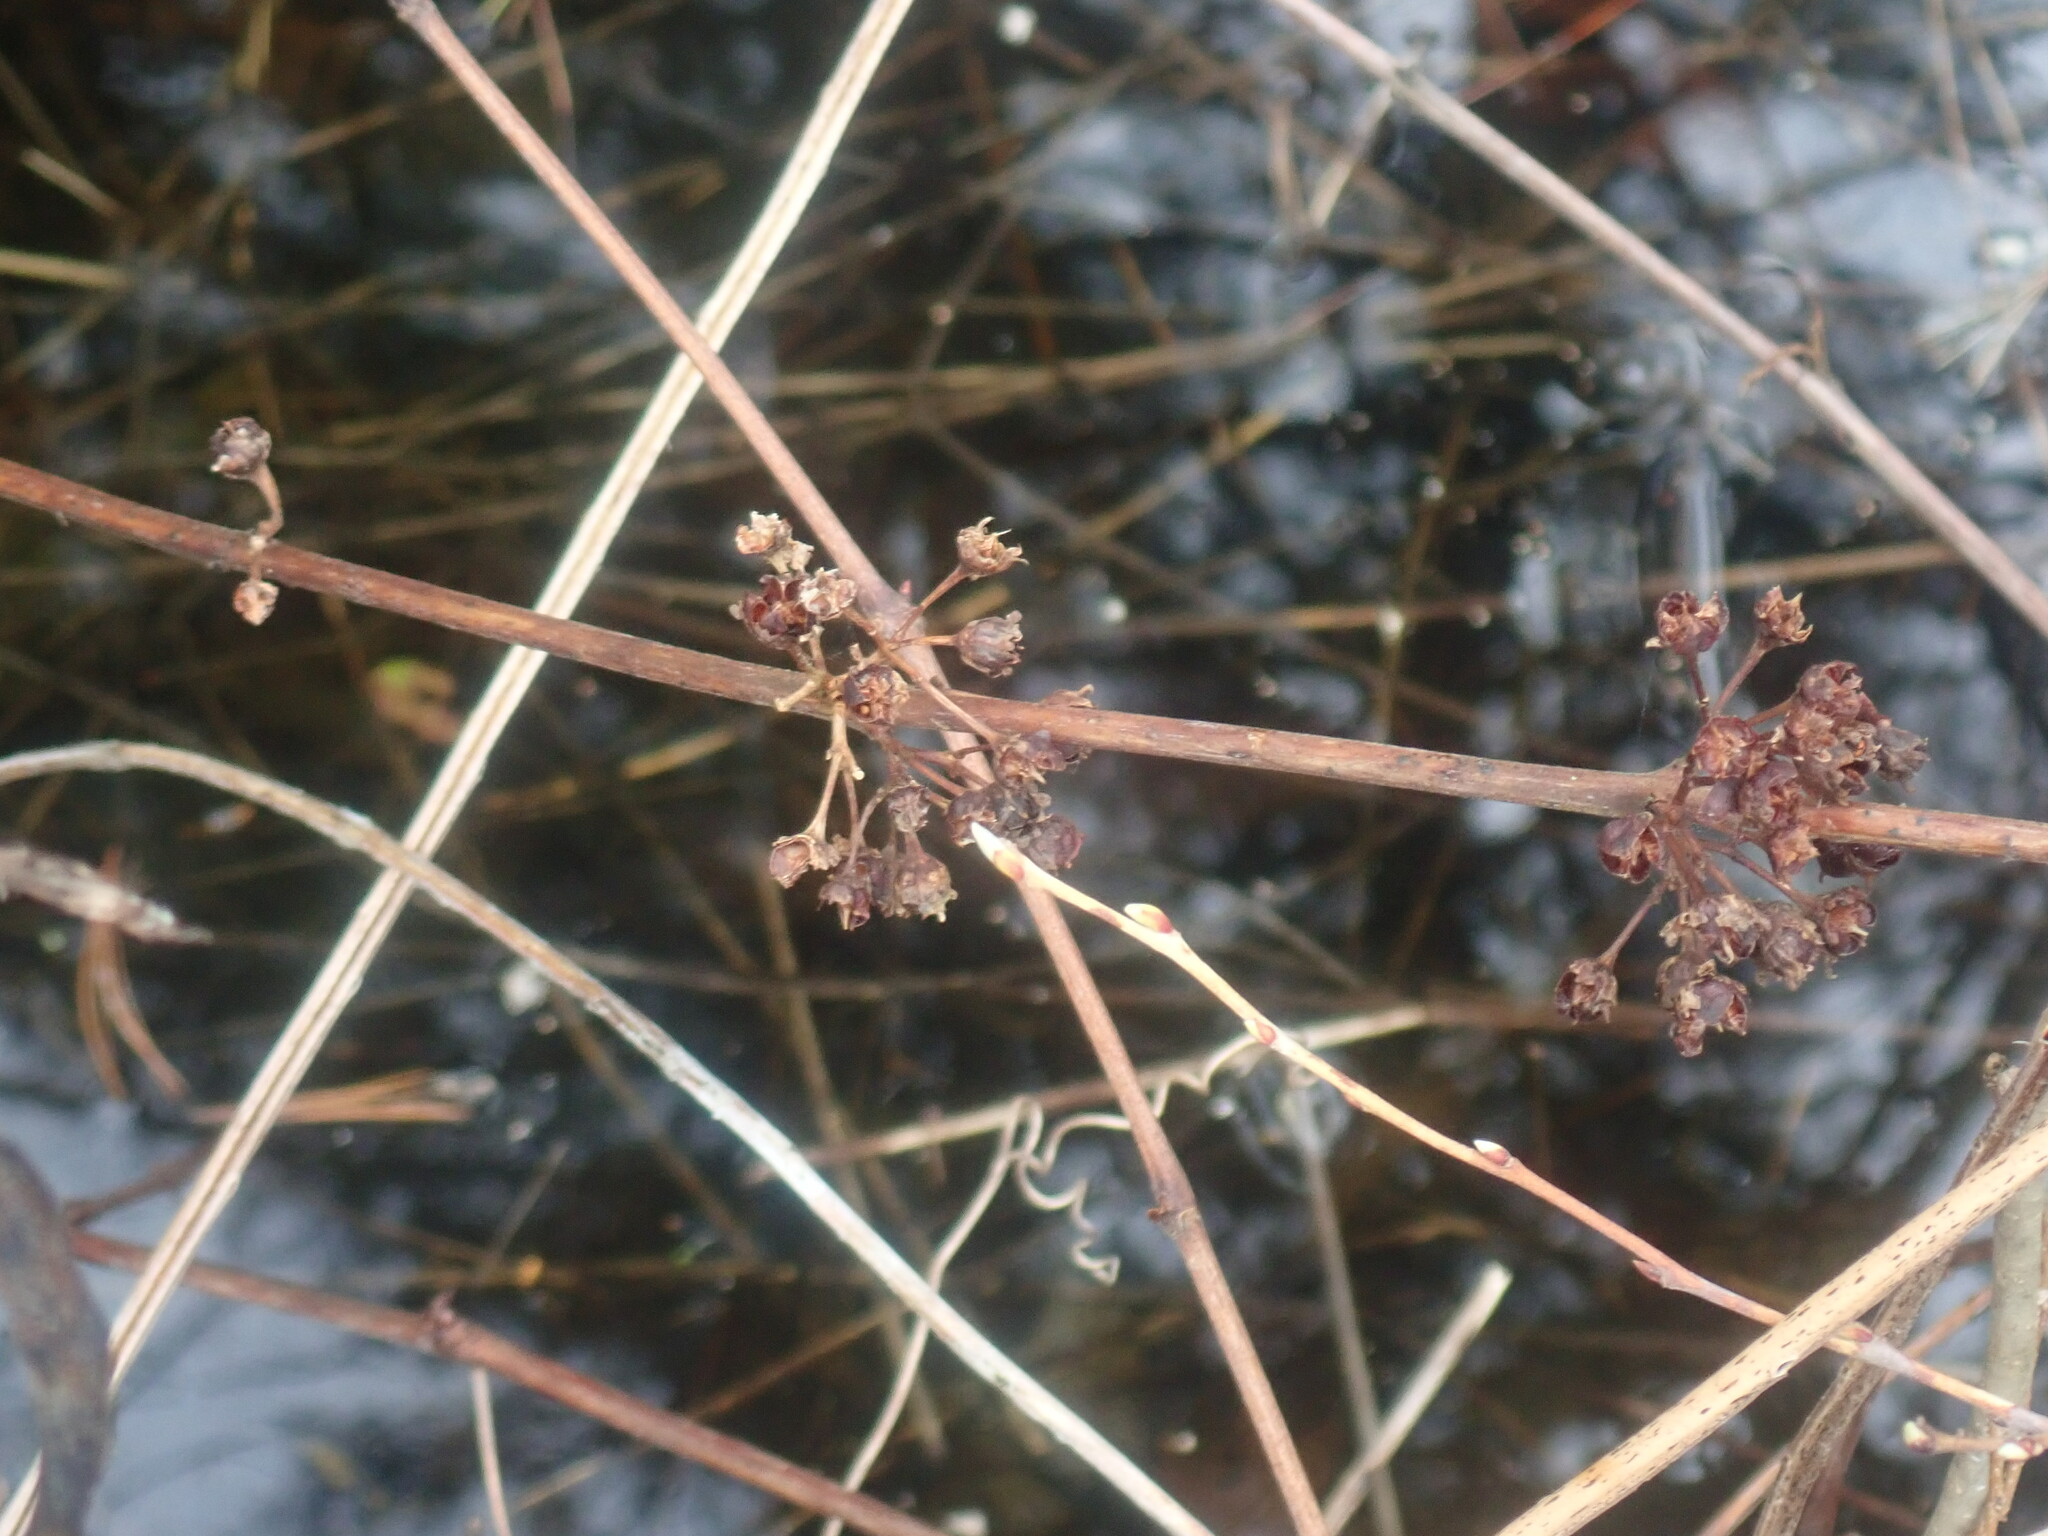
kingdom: Plantae
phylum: Tracheophyta
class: Magnoliopsida
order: Myrtales
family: Lythraceae
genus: Decodon
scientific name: Decodon verticillatus
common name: Hairy swamp loosestrife
